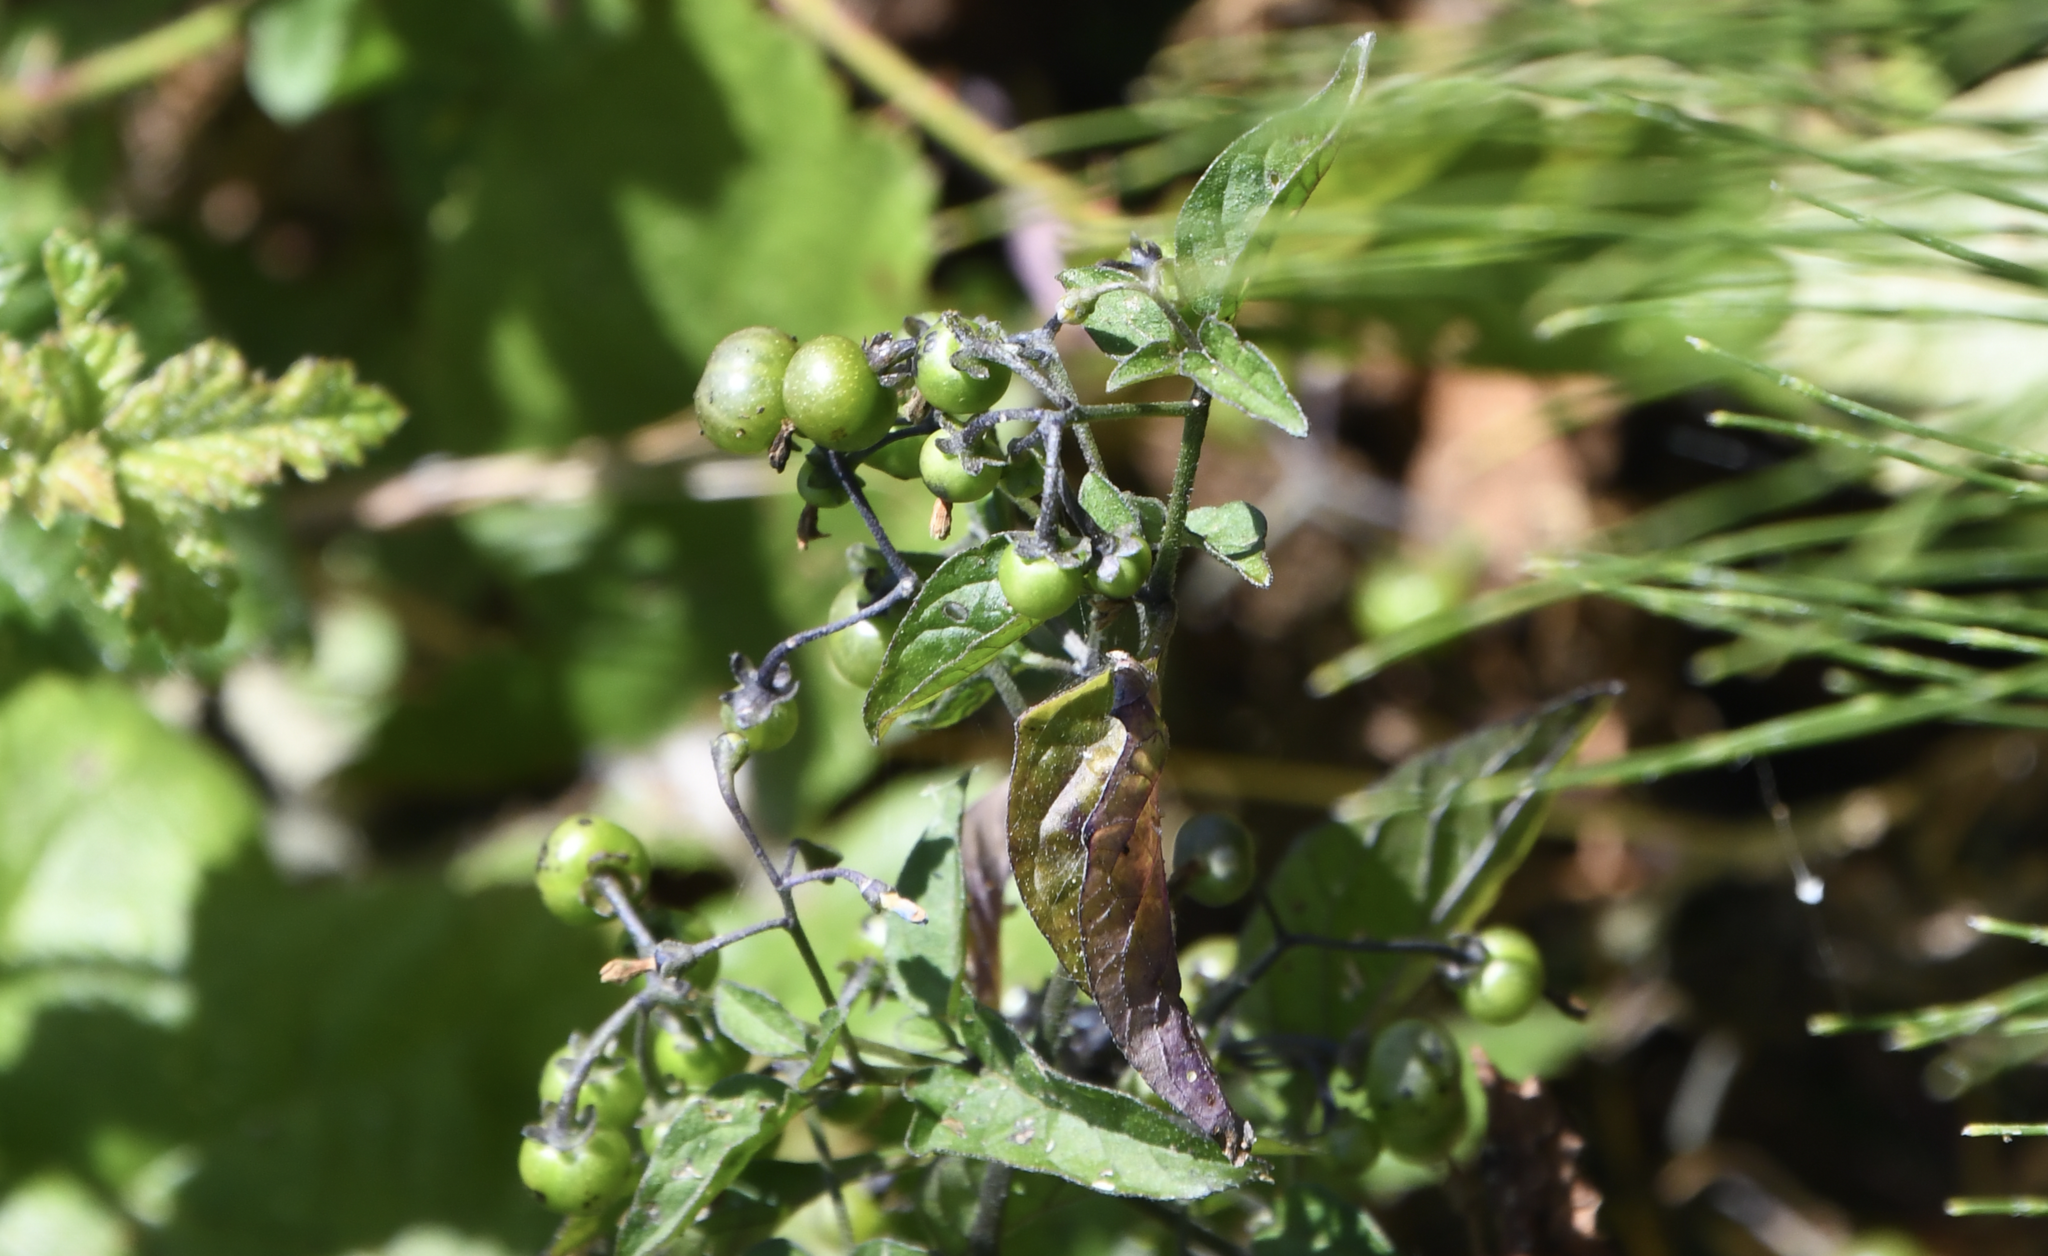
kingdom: Plantae
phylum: Tracheophyta
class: Magnoliopsida
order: Solanales
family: Solanaceae
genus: Solanum
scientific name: Solanum americanum
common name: American black nightshade
